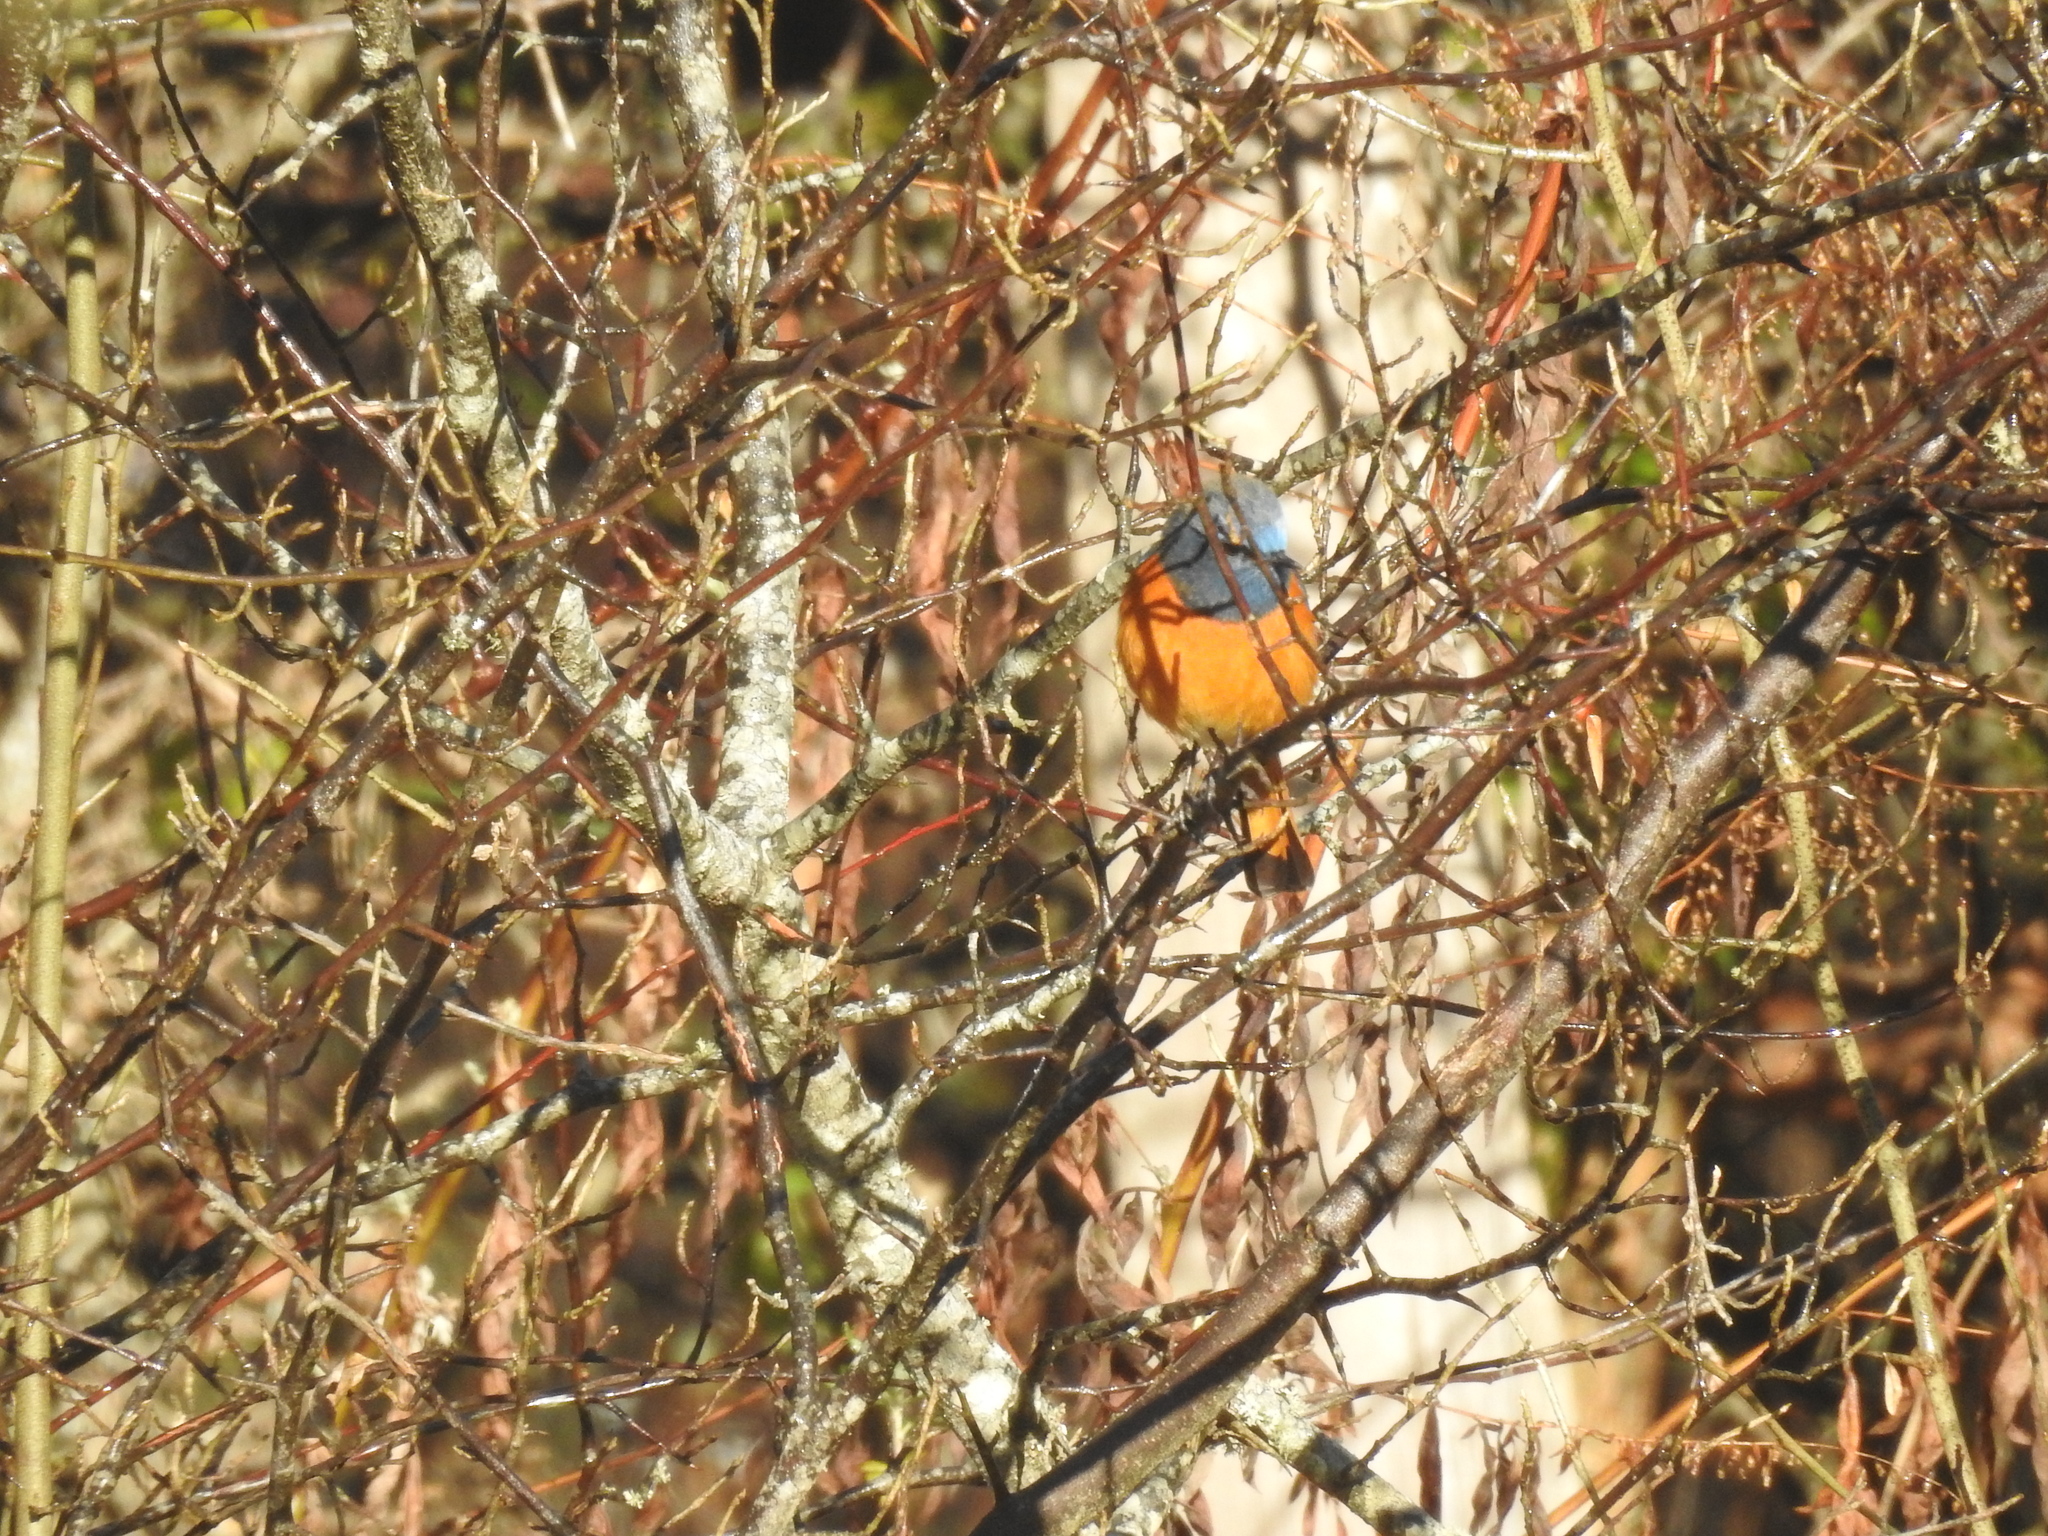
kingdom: Animalia
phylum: Chordata
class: Aves
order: Passeriformes
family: Muscicapidae
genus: Phoenicurus
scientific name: Phoenicurus frontalis
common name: Blue-fronted redstart
